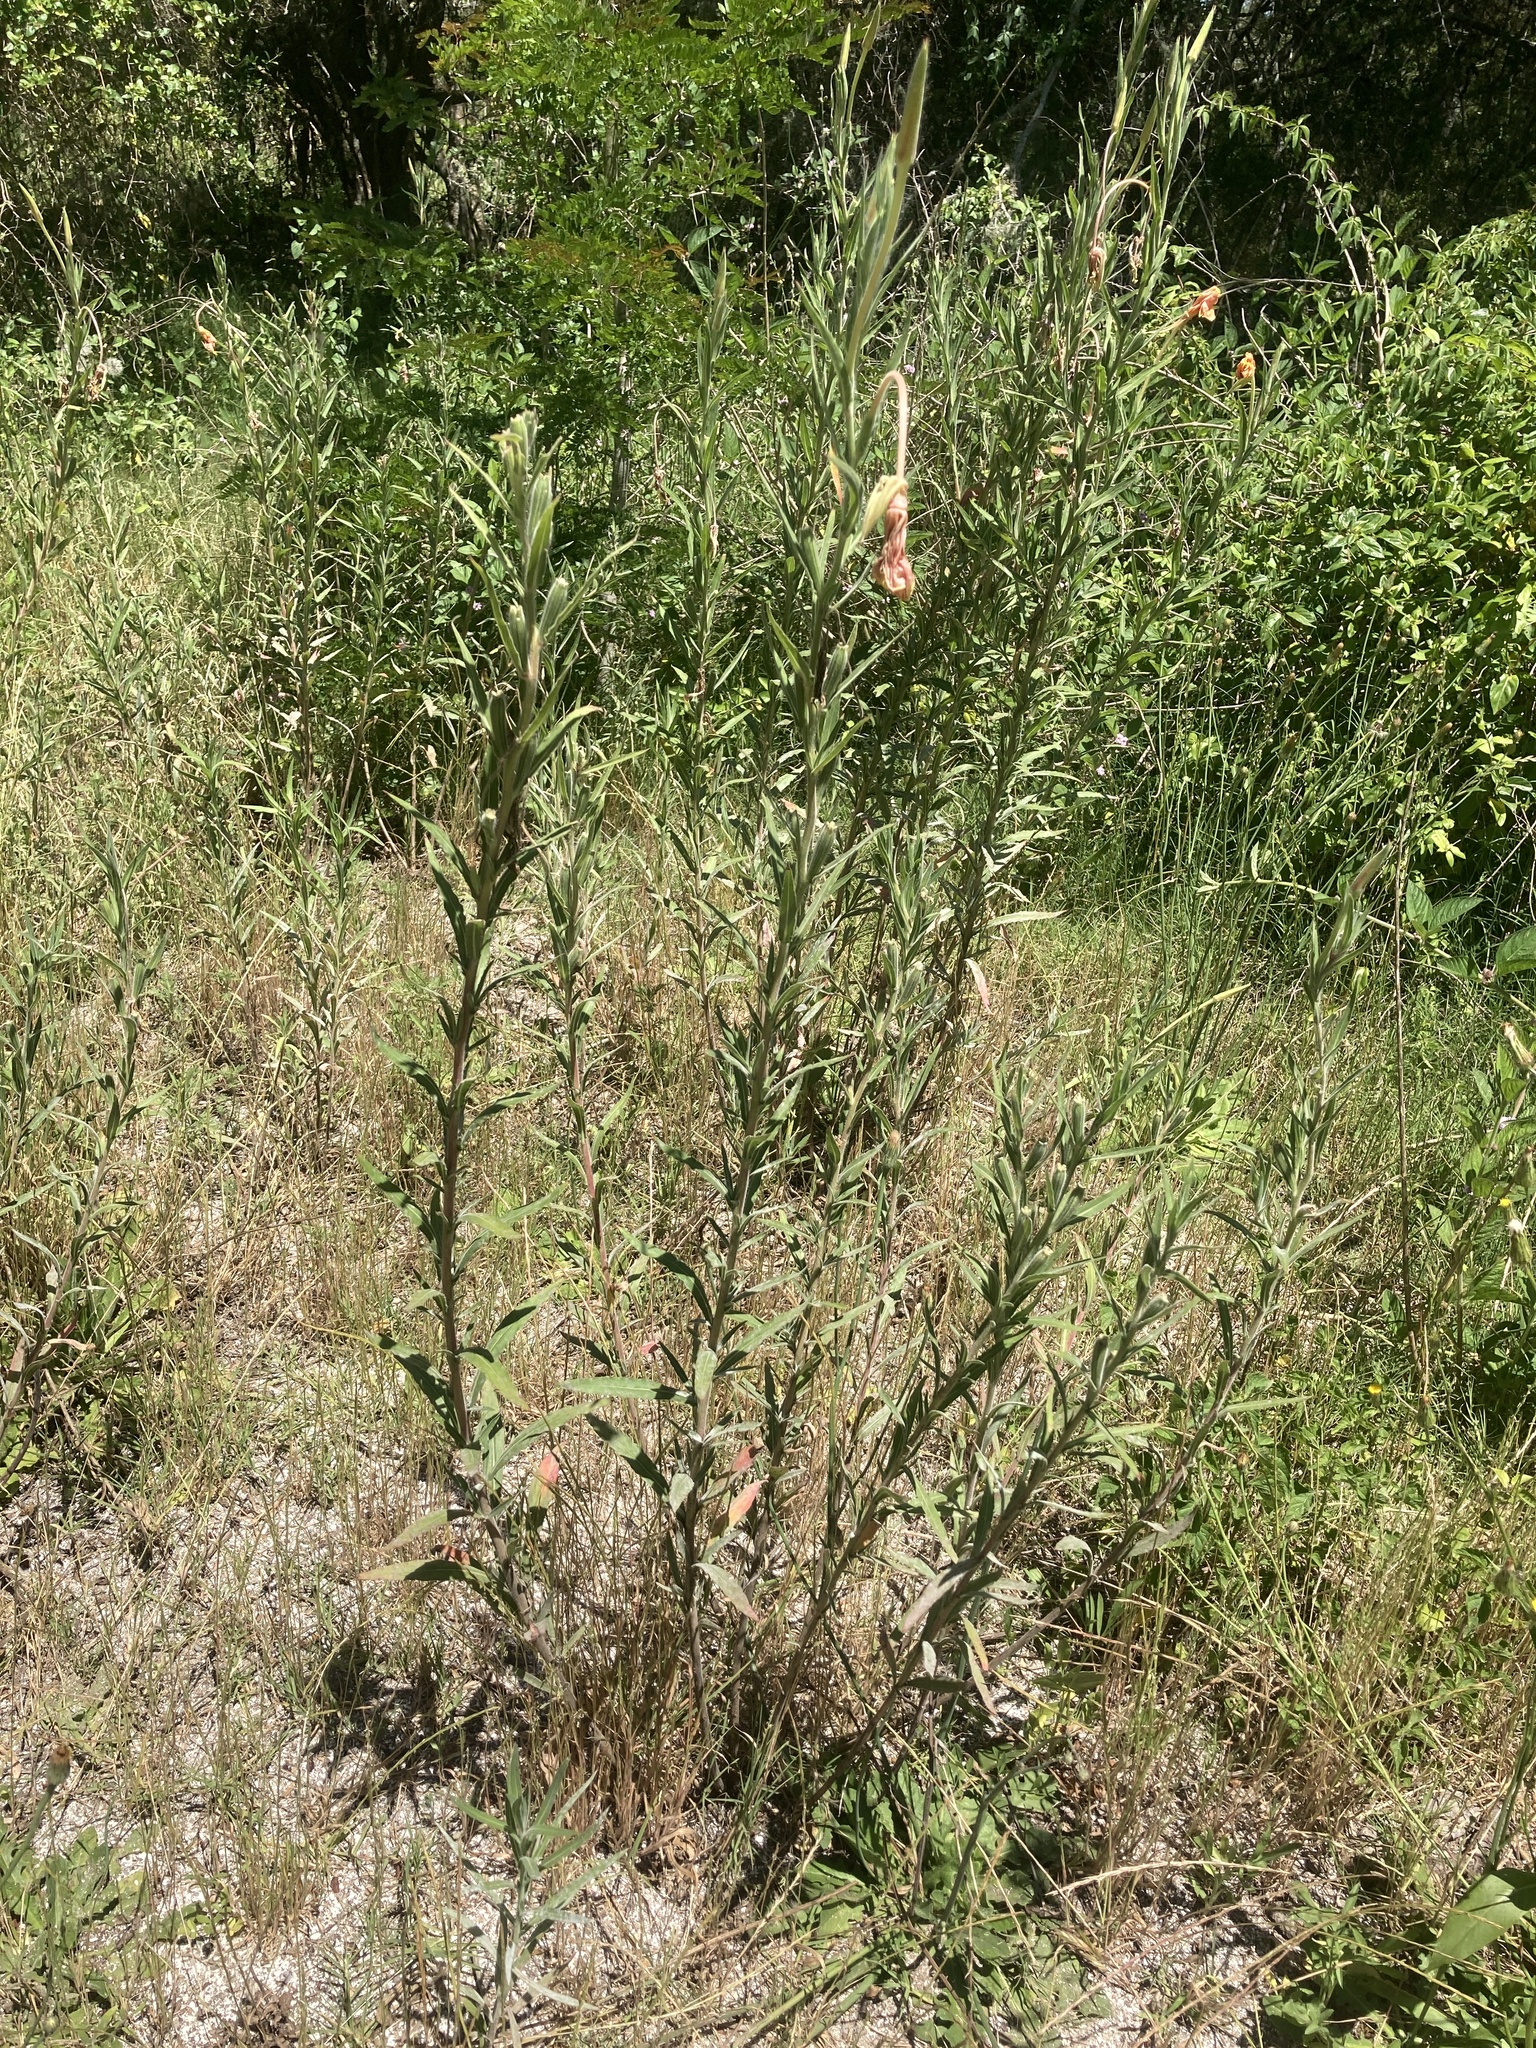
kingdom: Plantae
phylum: Tracheophyta
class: Magnoliopsida
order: Myrtales
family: Onagraceae
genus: Oenothera
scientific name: Oenothera affinis
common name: Longflower evening primrose
